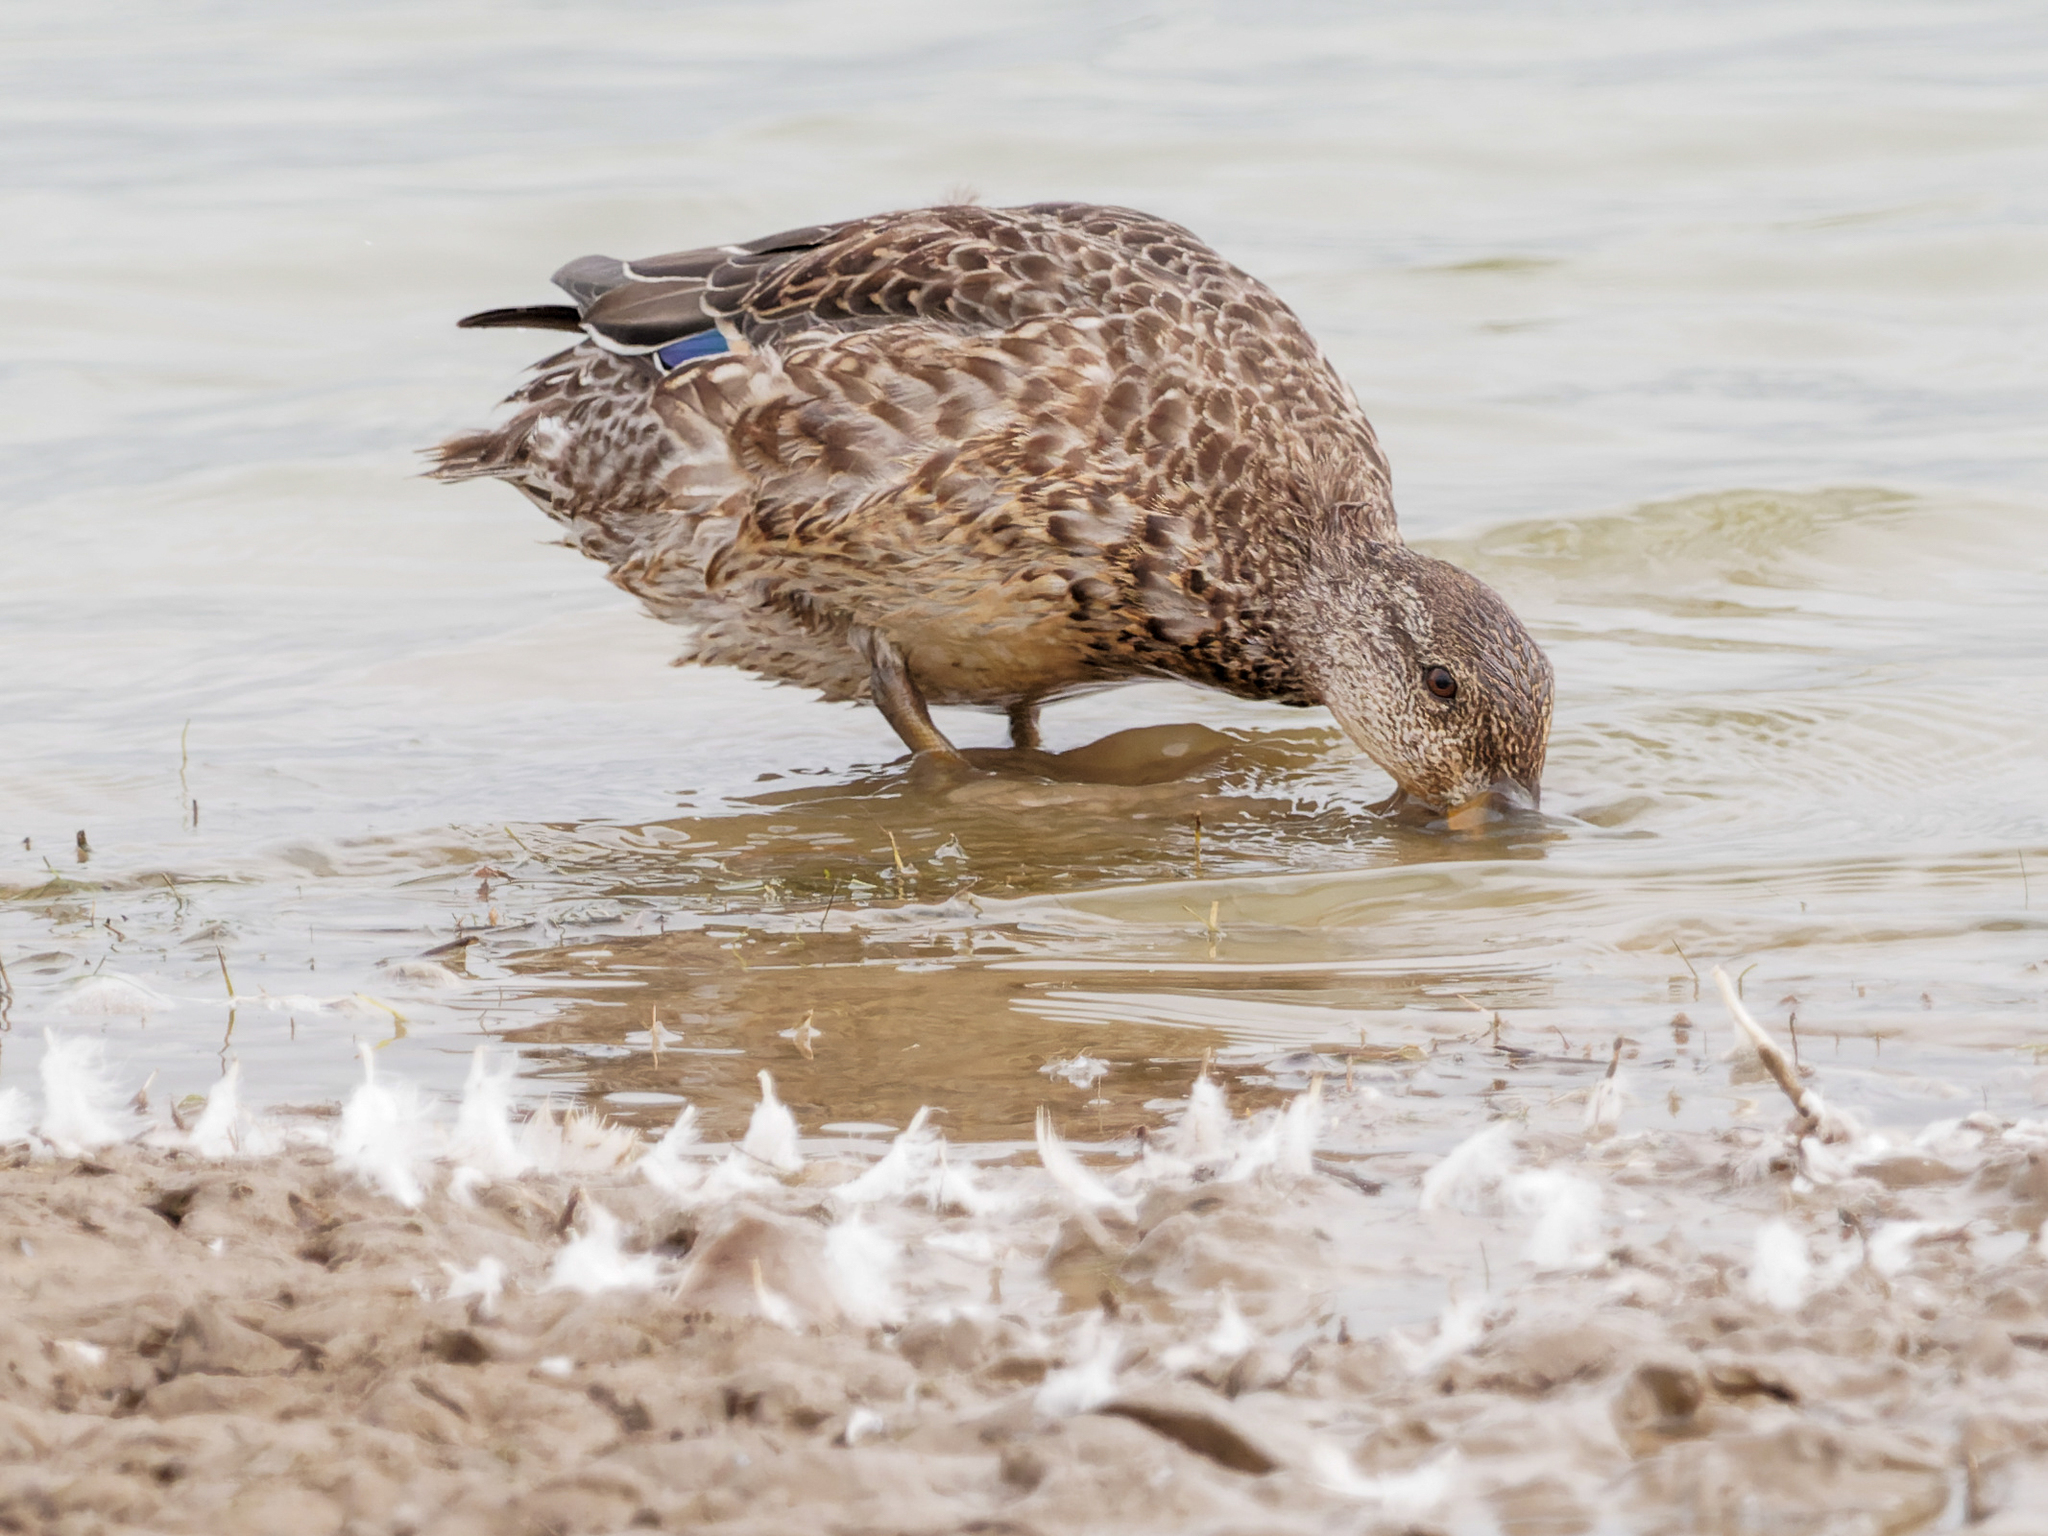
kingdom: Animalia
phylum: Chordata
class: Aves
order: Anseriformes
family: Anatidae
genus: Anas
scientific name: Anas platyrhynchos
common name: Mallard
